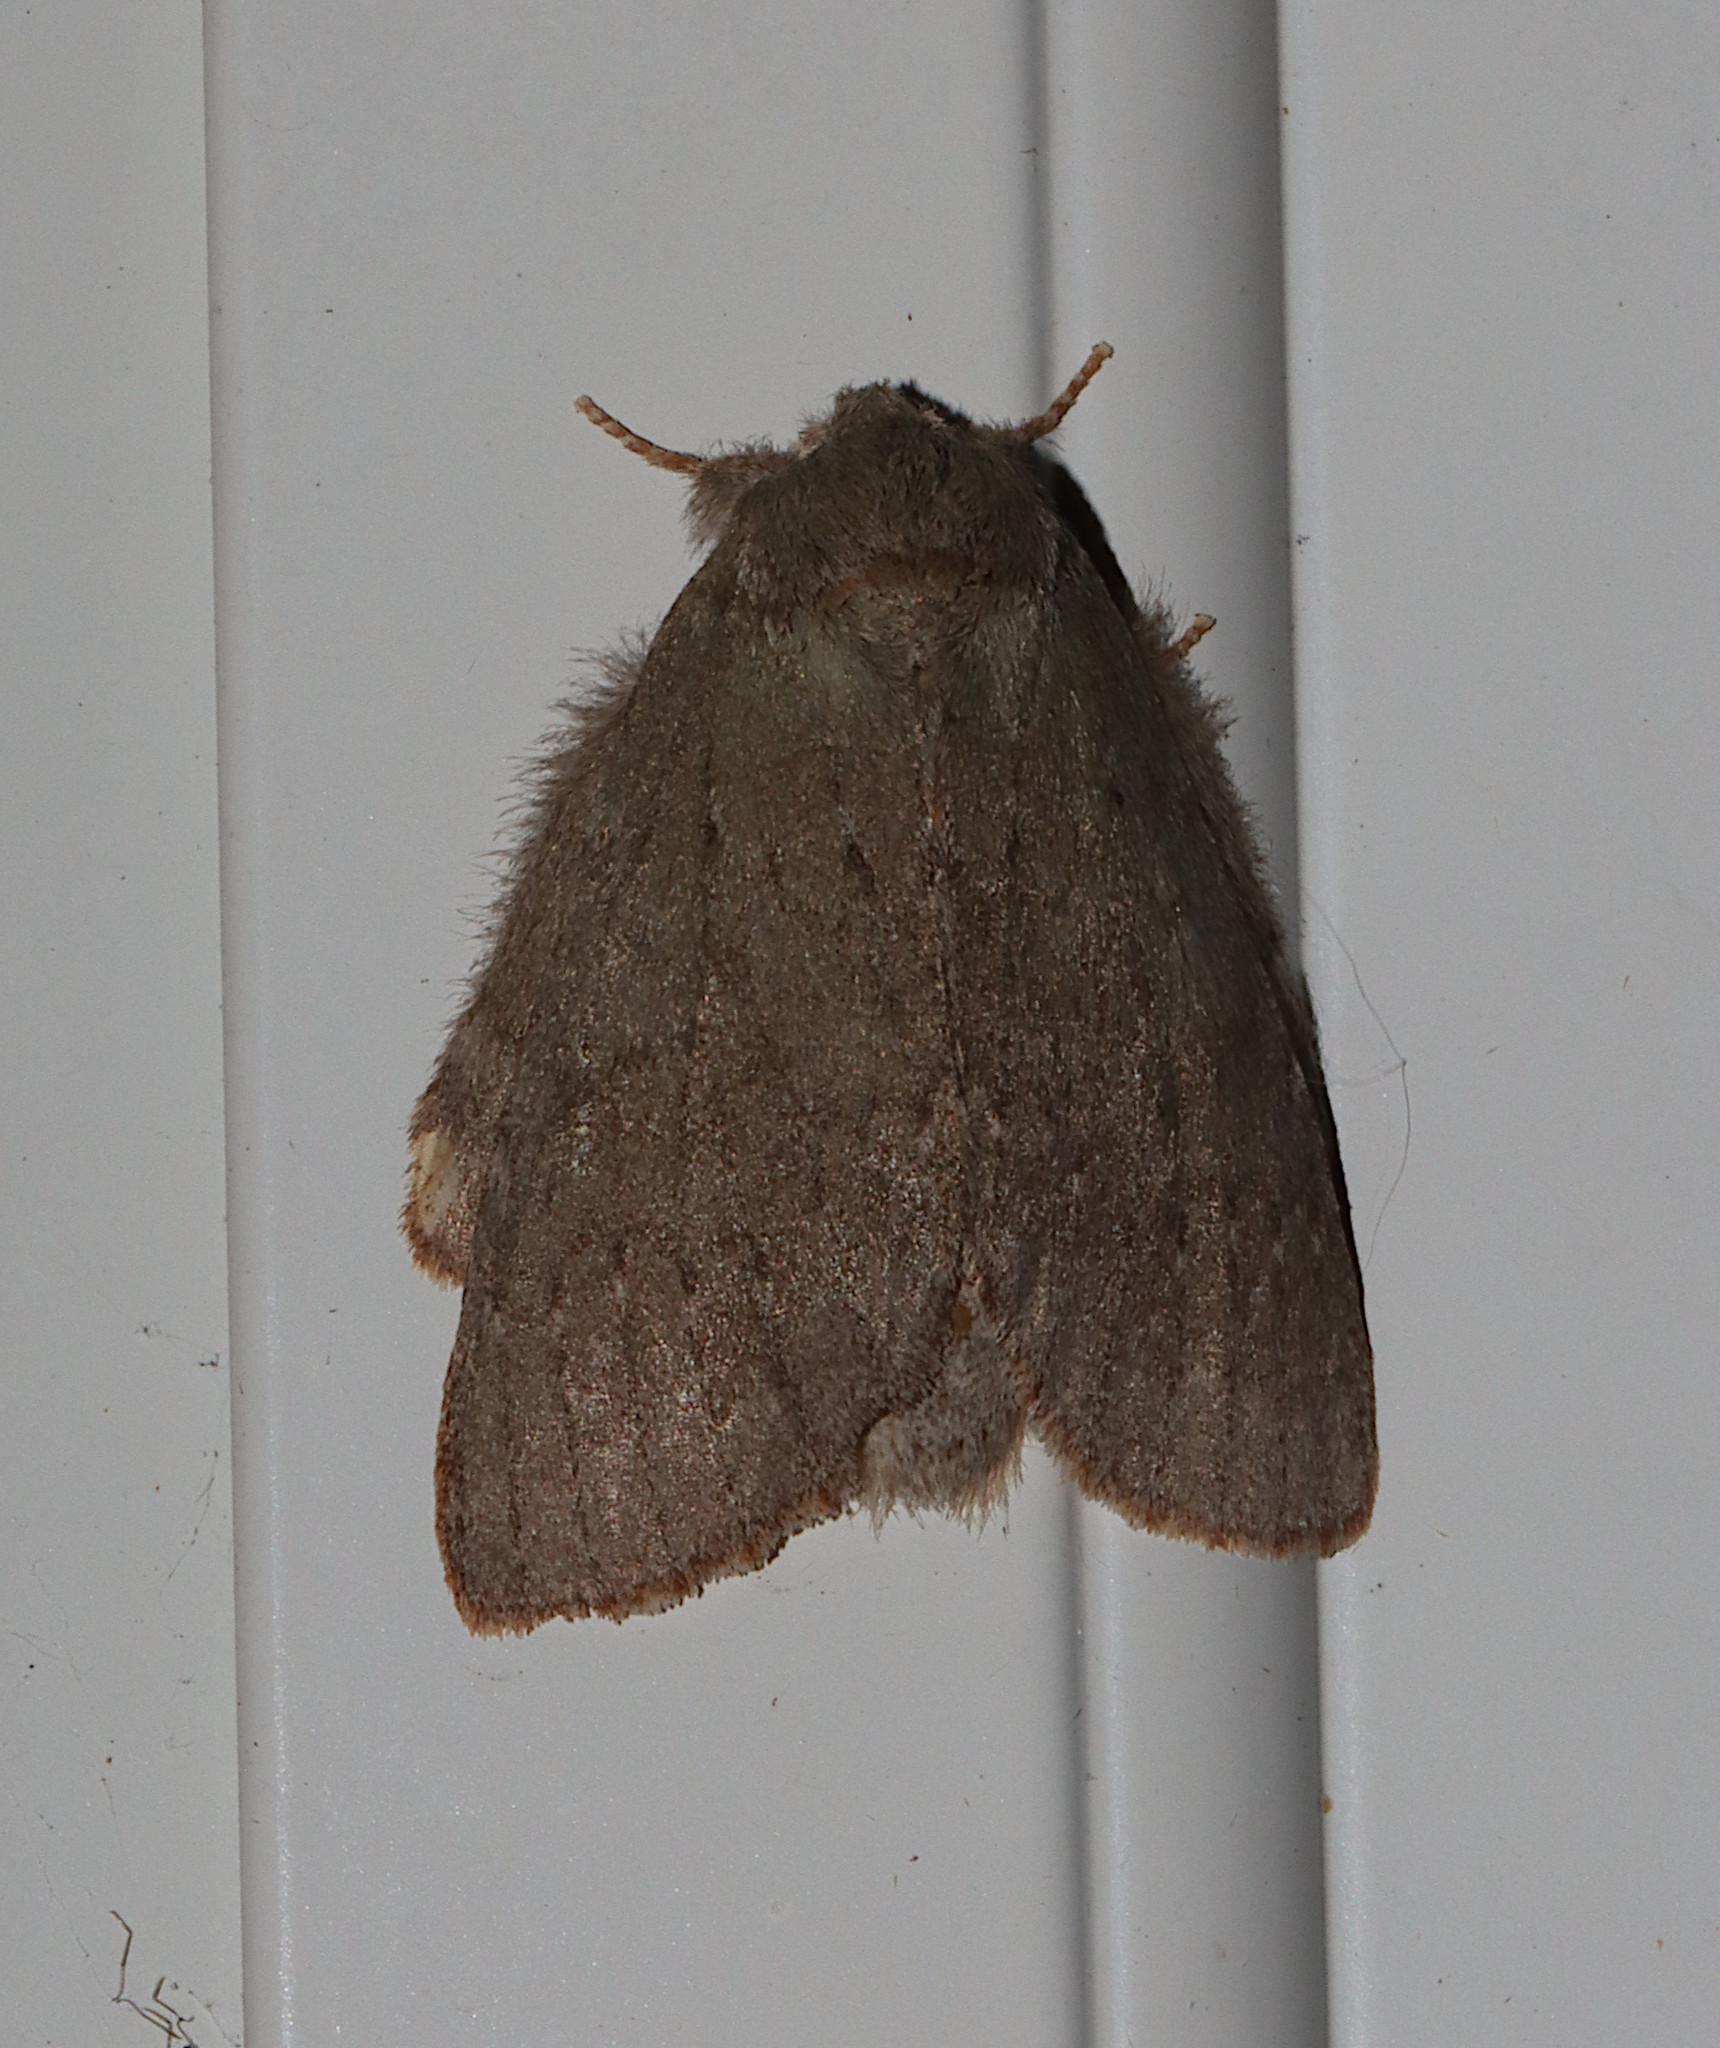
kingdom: Animalia
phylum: Arthropoda
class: Insecta
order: Lepidoptera
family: Notodontidae
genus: Misogada
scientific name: Misogada unicolor
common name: Drab prominent
